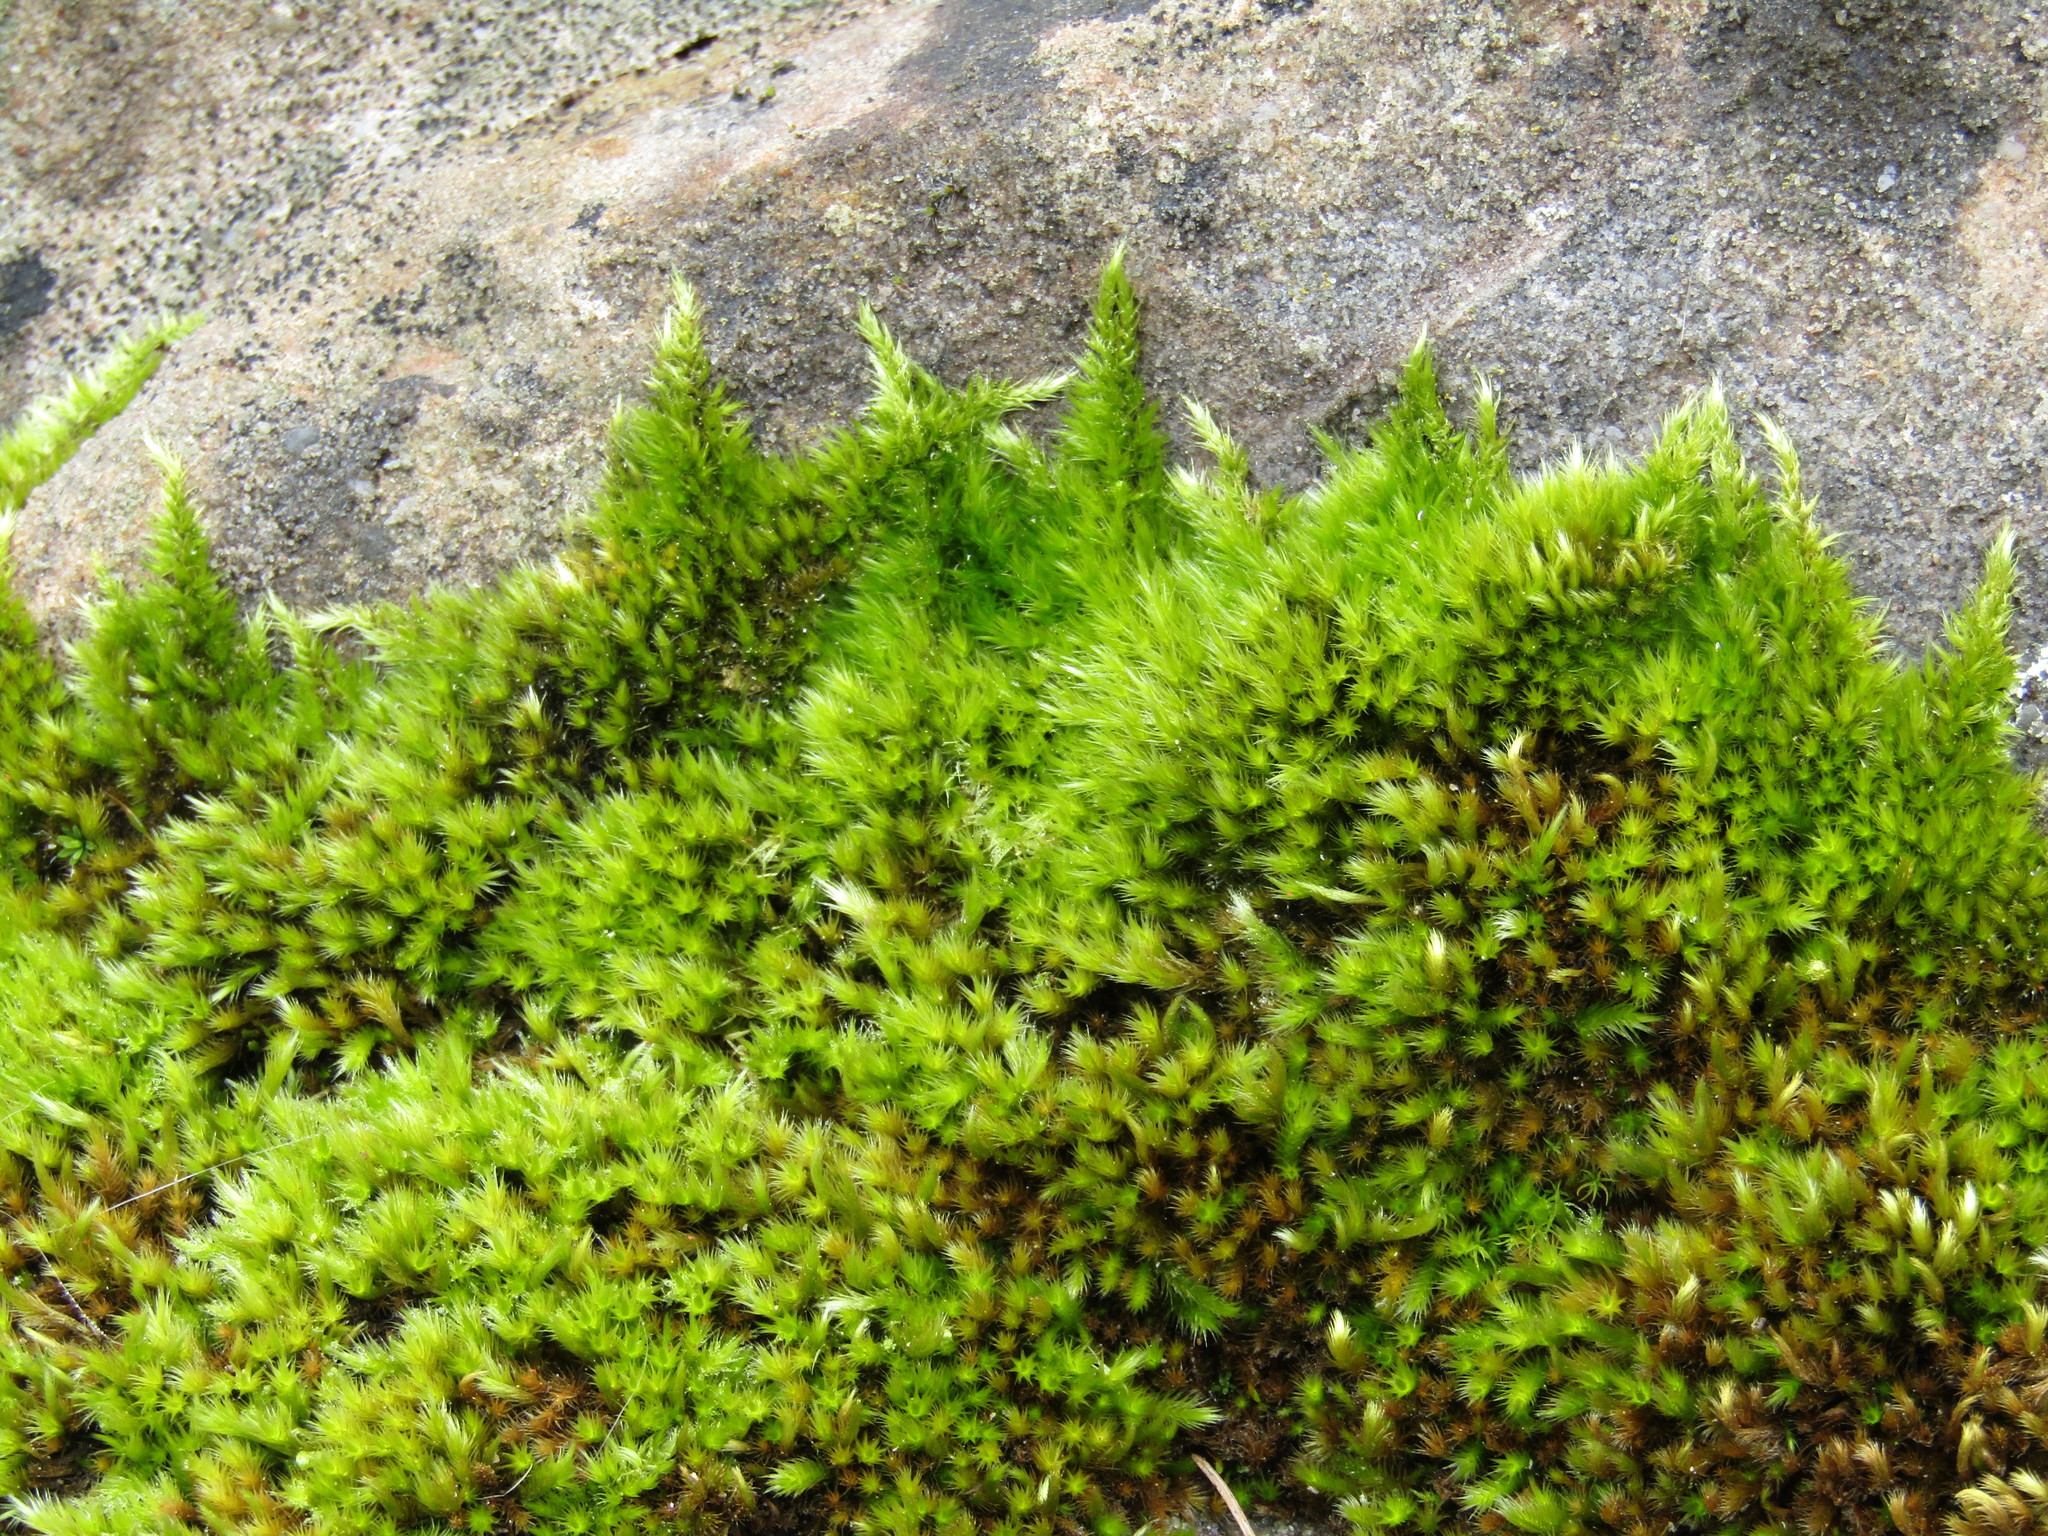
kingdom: Plantae
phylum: Bryophyta
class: Bryopsida
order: Hypnales
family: Brachytheciaceae
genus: Homalothecium
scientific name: Homalothecium sericeum
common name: Silky wall feather-moss
